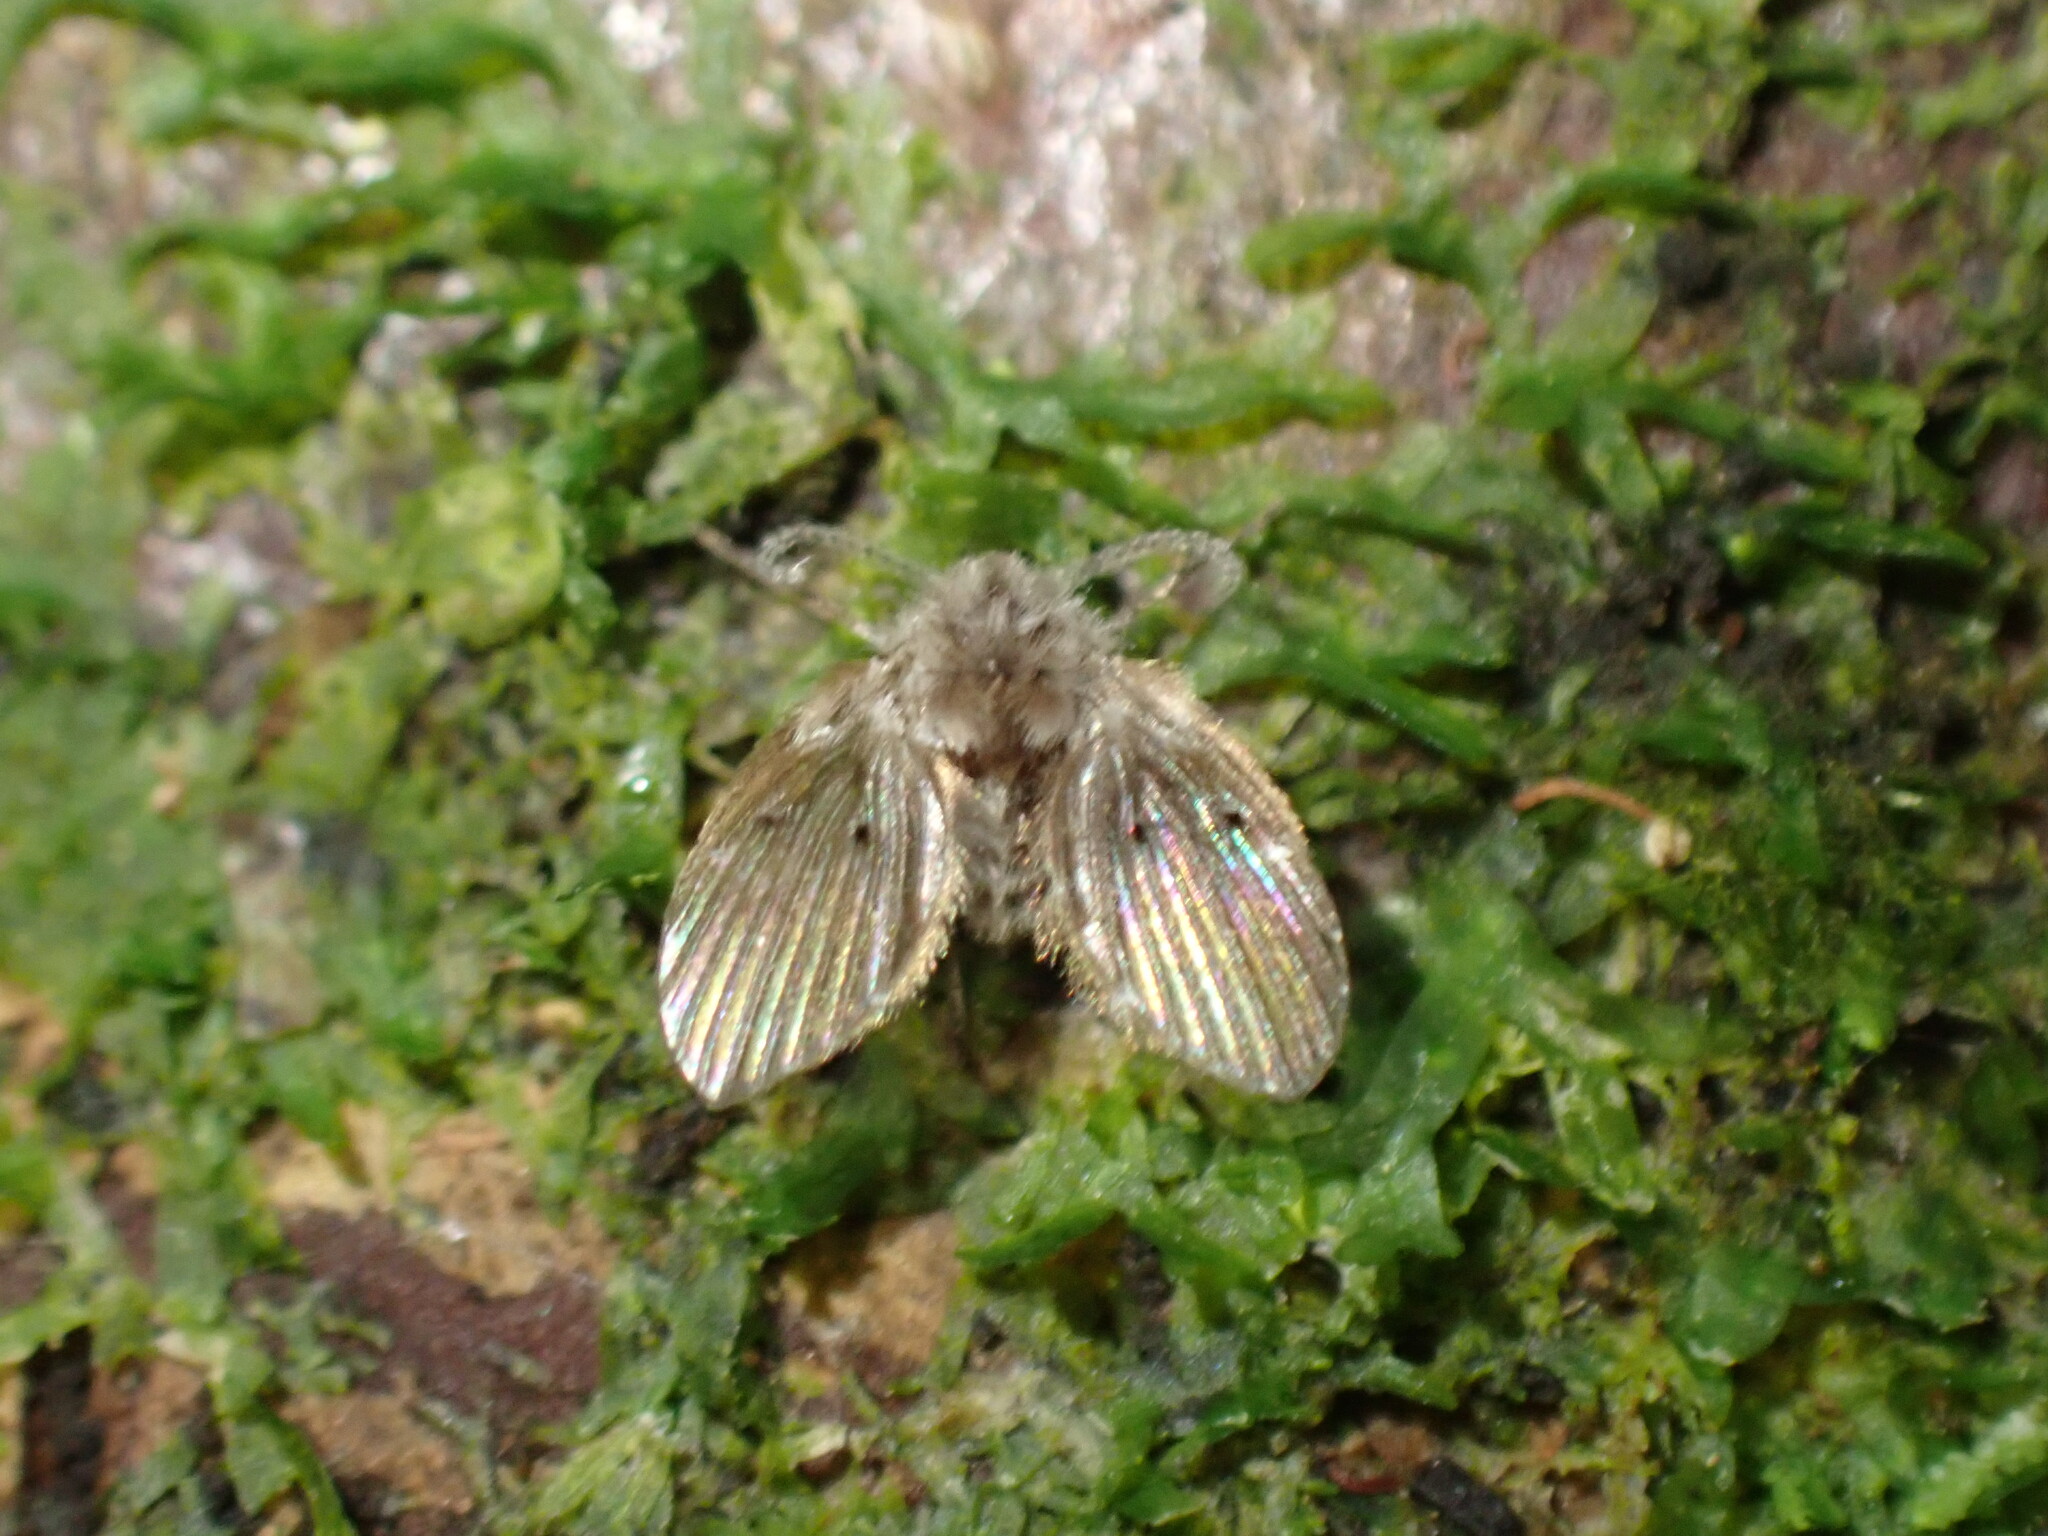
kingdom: Animalia
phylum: Arthropoda
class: Insecta
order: Diptera
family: Psychodidae
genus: Clogmia
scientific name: Clogmia albipunctatus
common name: White-spotted moth fly
